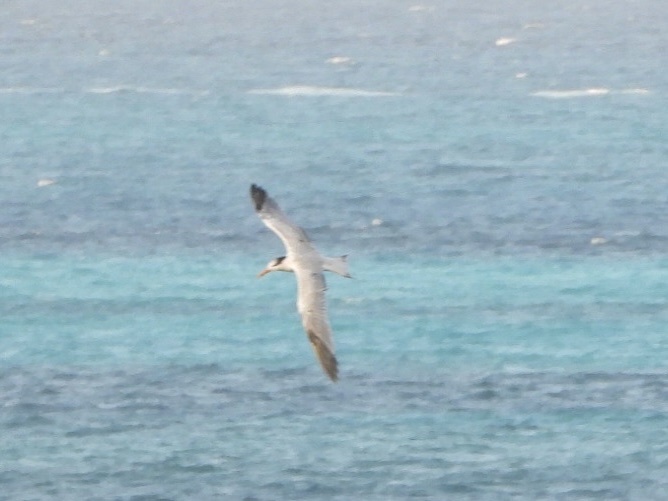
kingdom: Animalia
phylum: Chordata
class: Aves
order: Charadriiformes
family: Laridae
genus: Thalasseus
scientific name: Thalasseus maximus
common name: Royal tern
